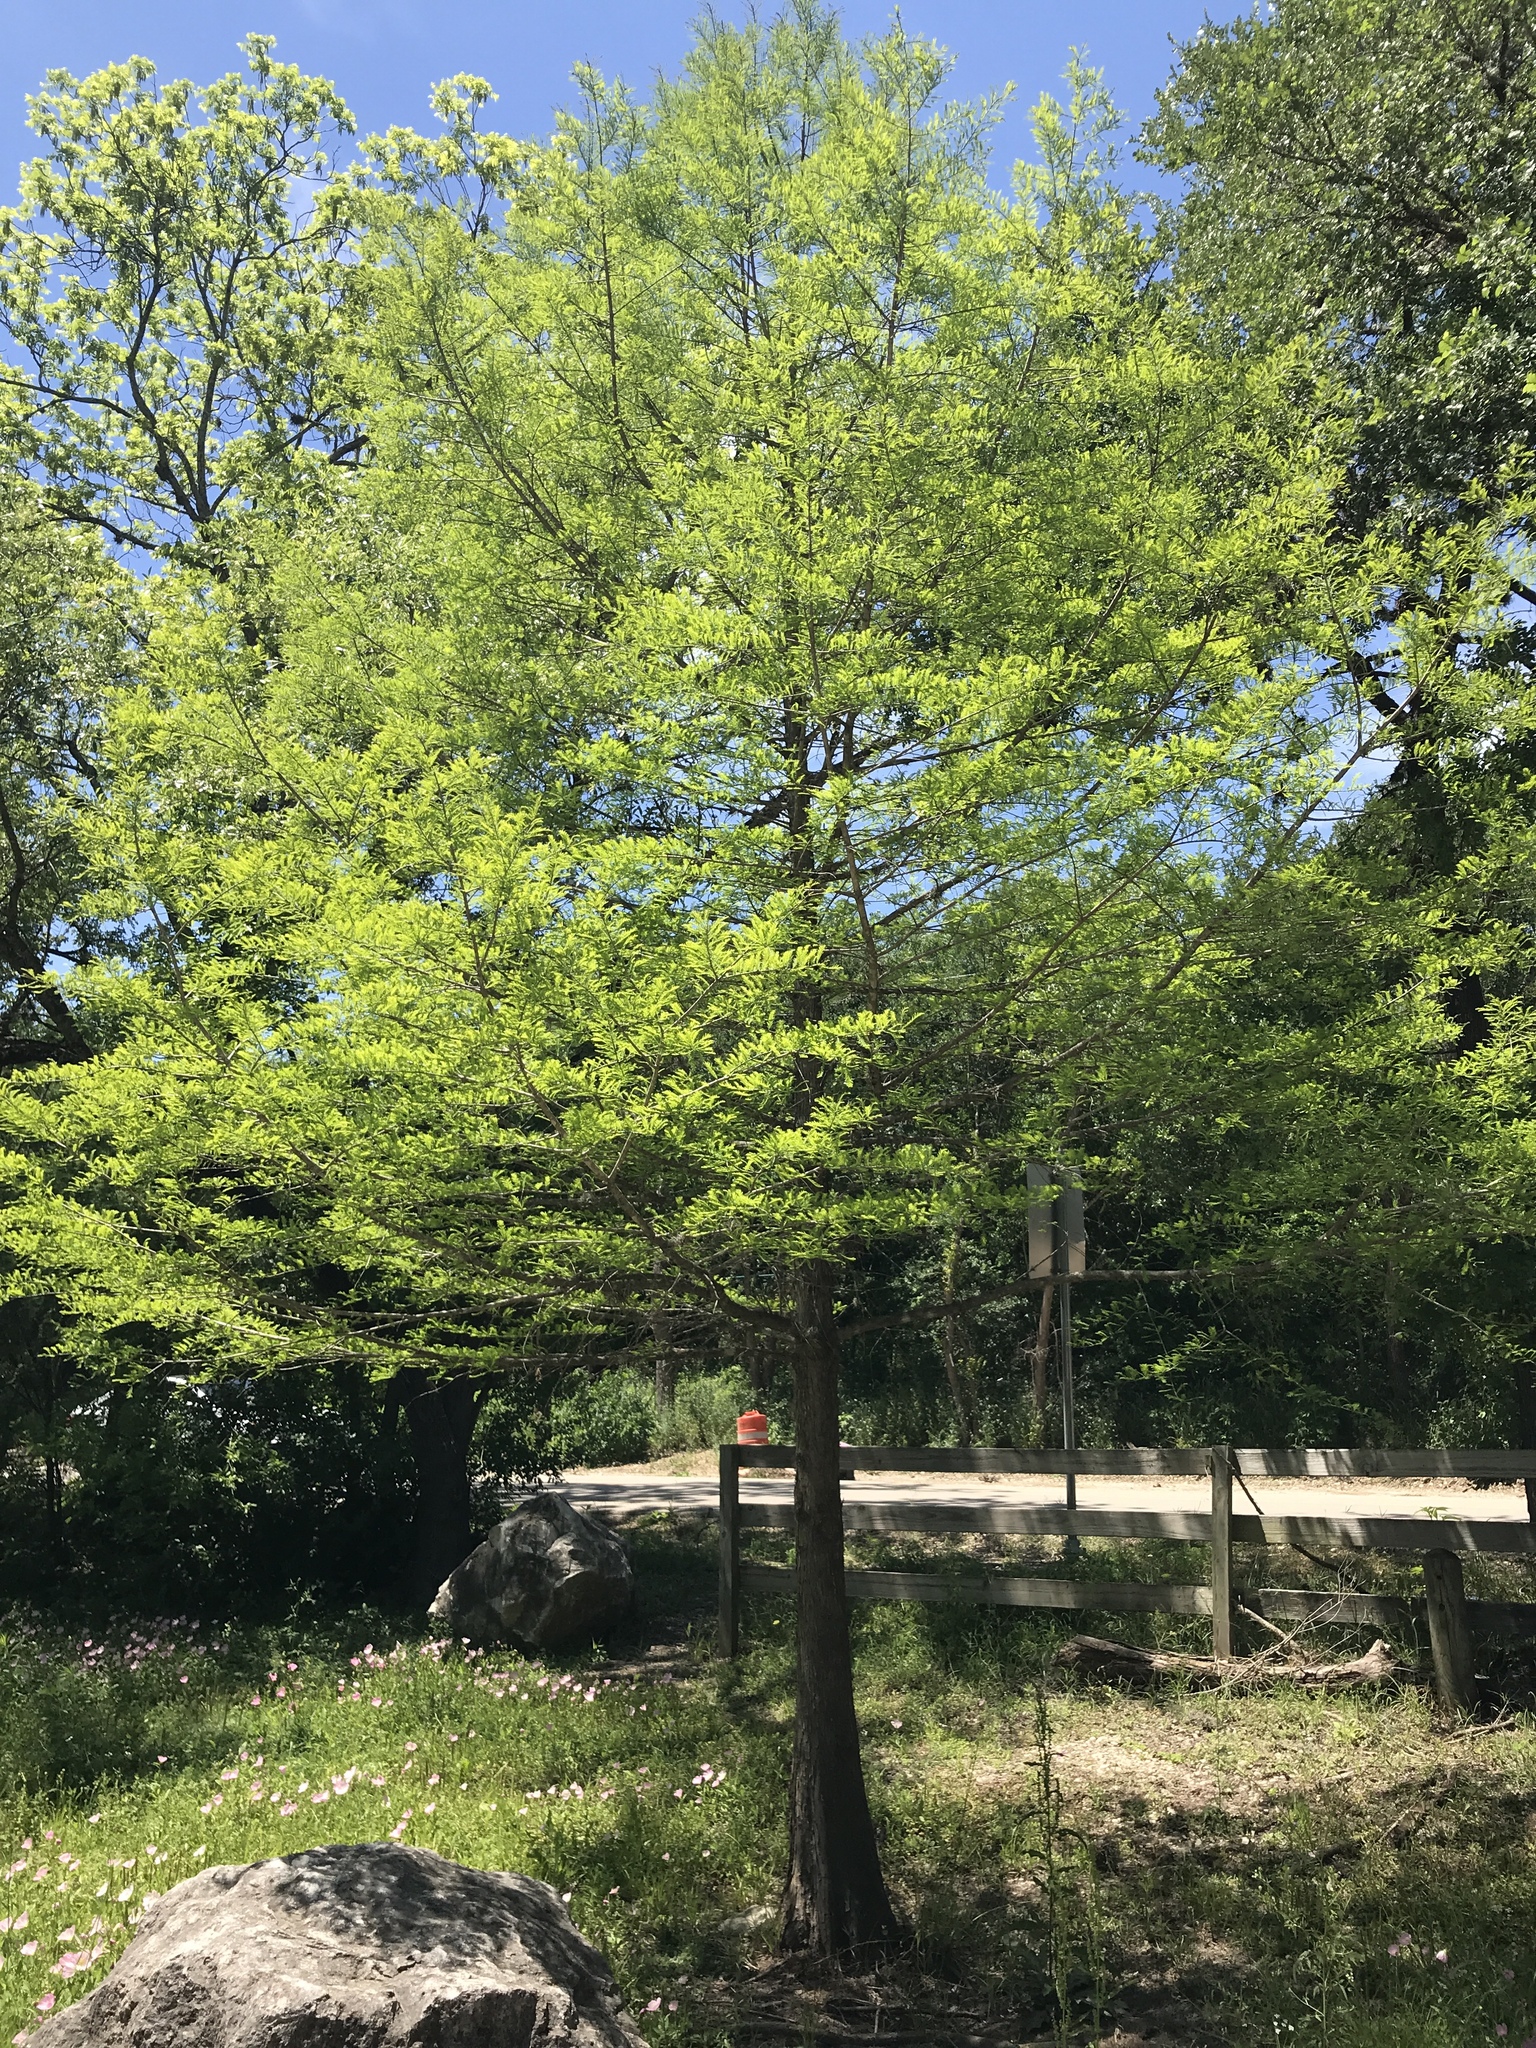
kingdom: Plantae
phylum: Tracheophyta
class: Pinopsida
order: Pinales
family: Cupressaceae
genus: Taxodium
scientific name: Taxodium distichum
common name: Bald cypress
